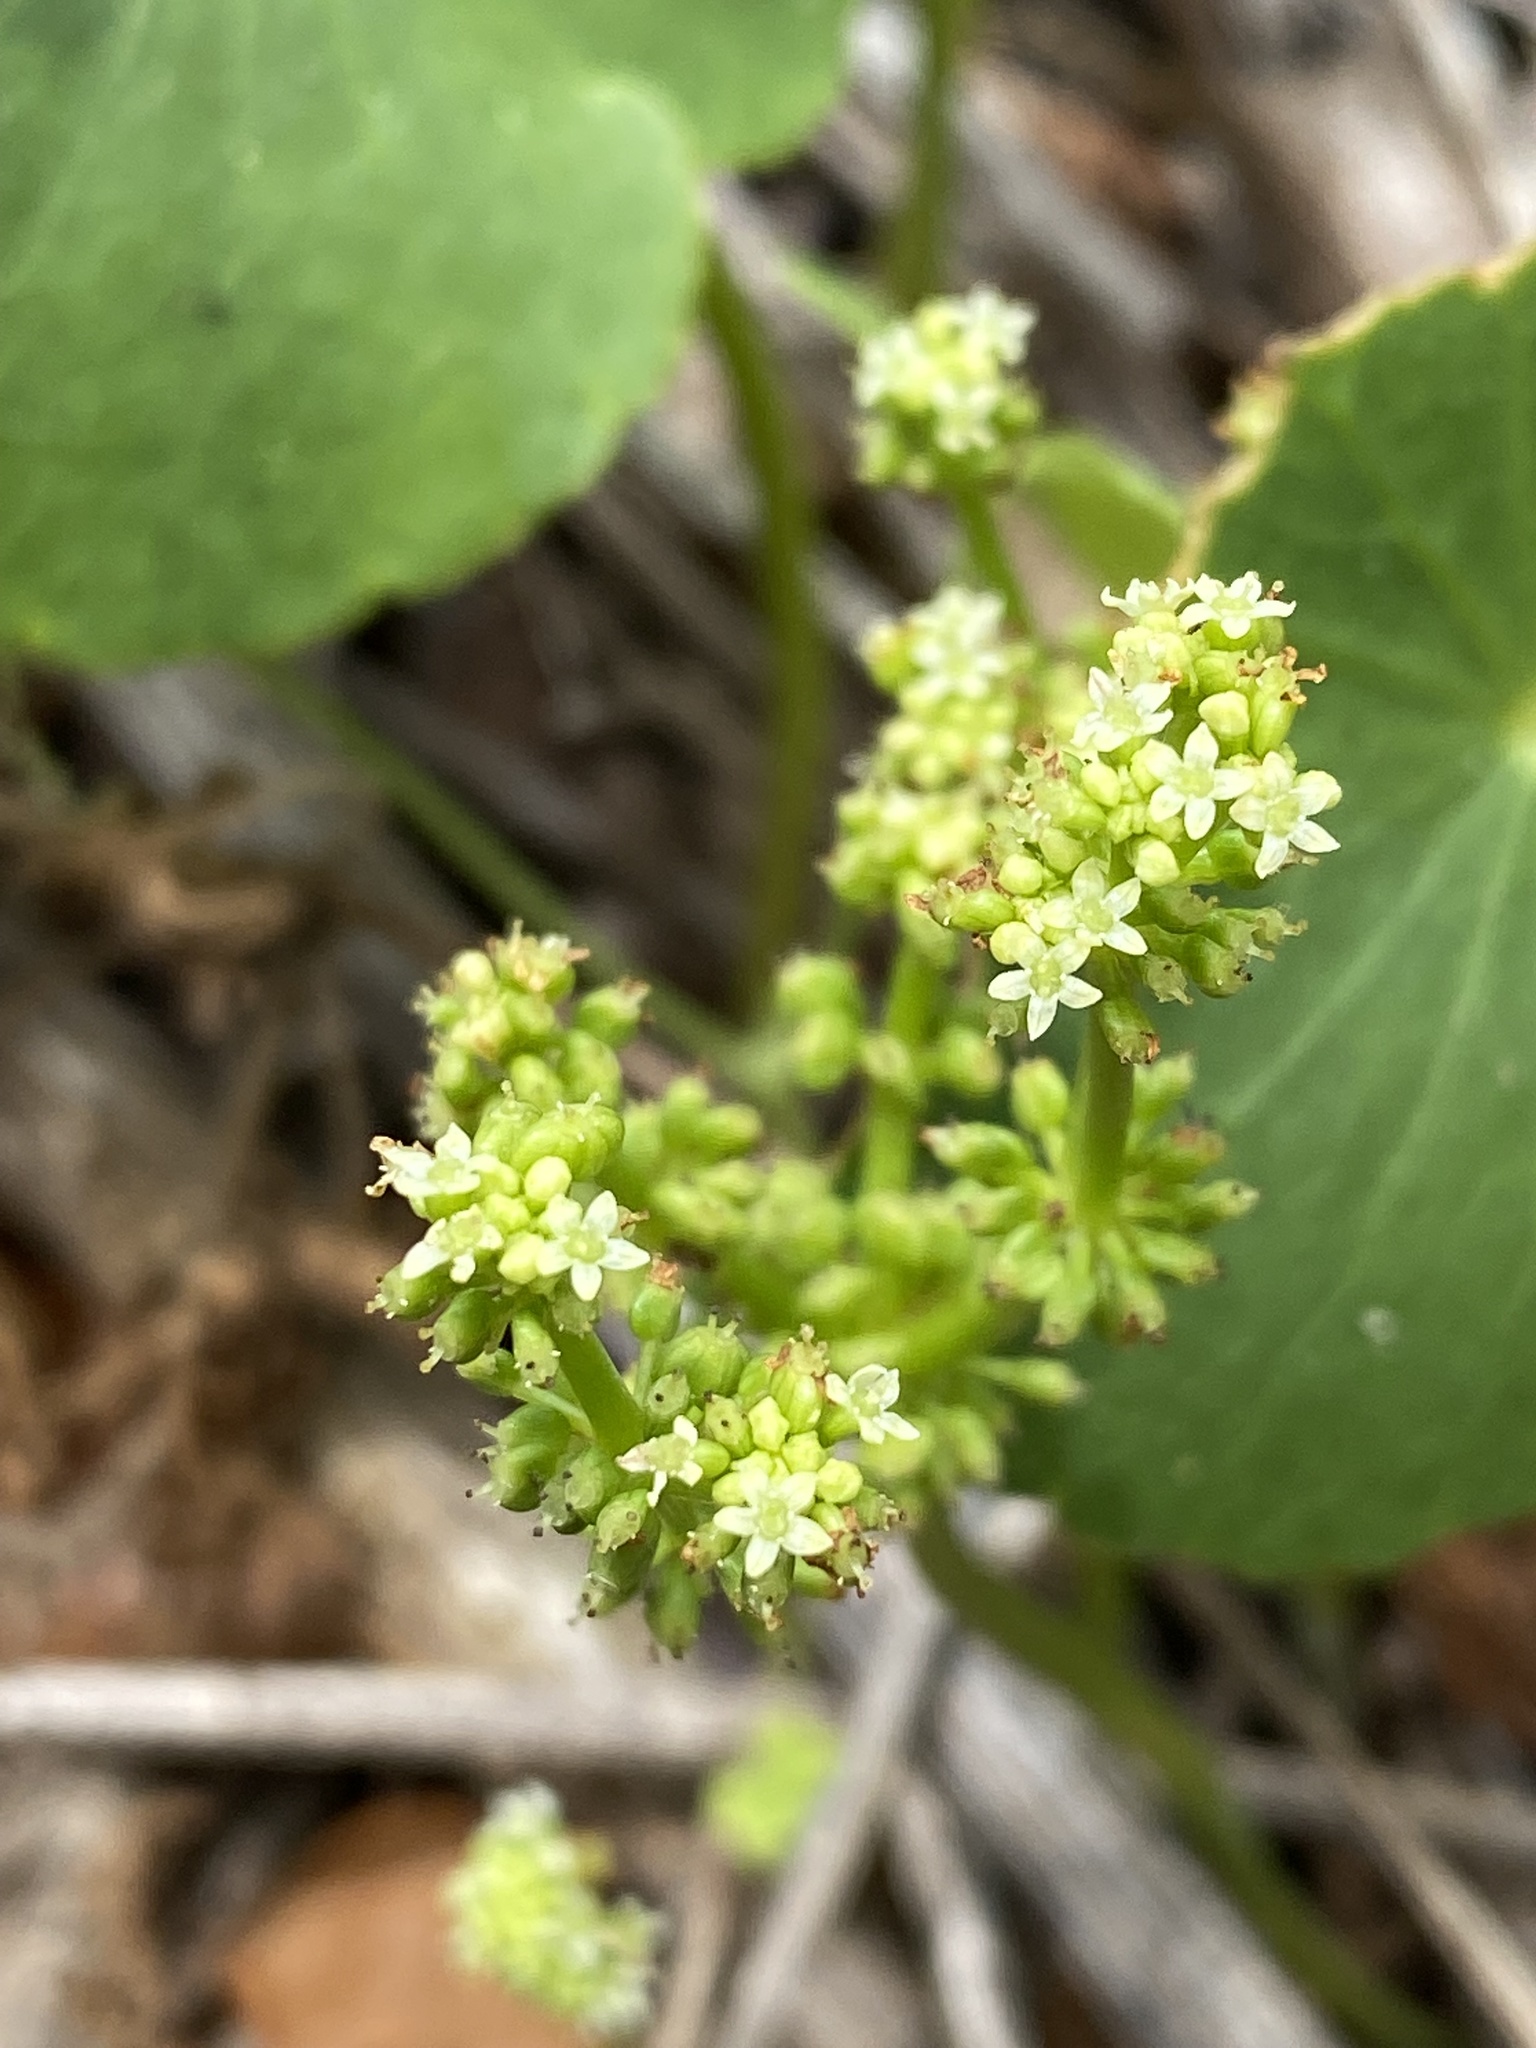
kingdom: Plantae
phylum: Tracheophyta
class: Magnoliopsida
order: Apiales
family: Araliaceae
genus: Hydrocotyle
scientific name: Hydrocotyle bonariensis
